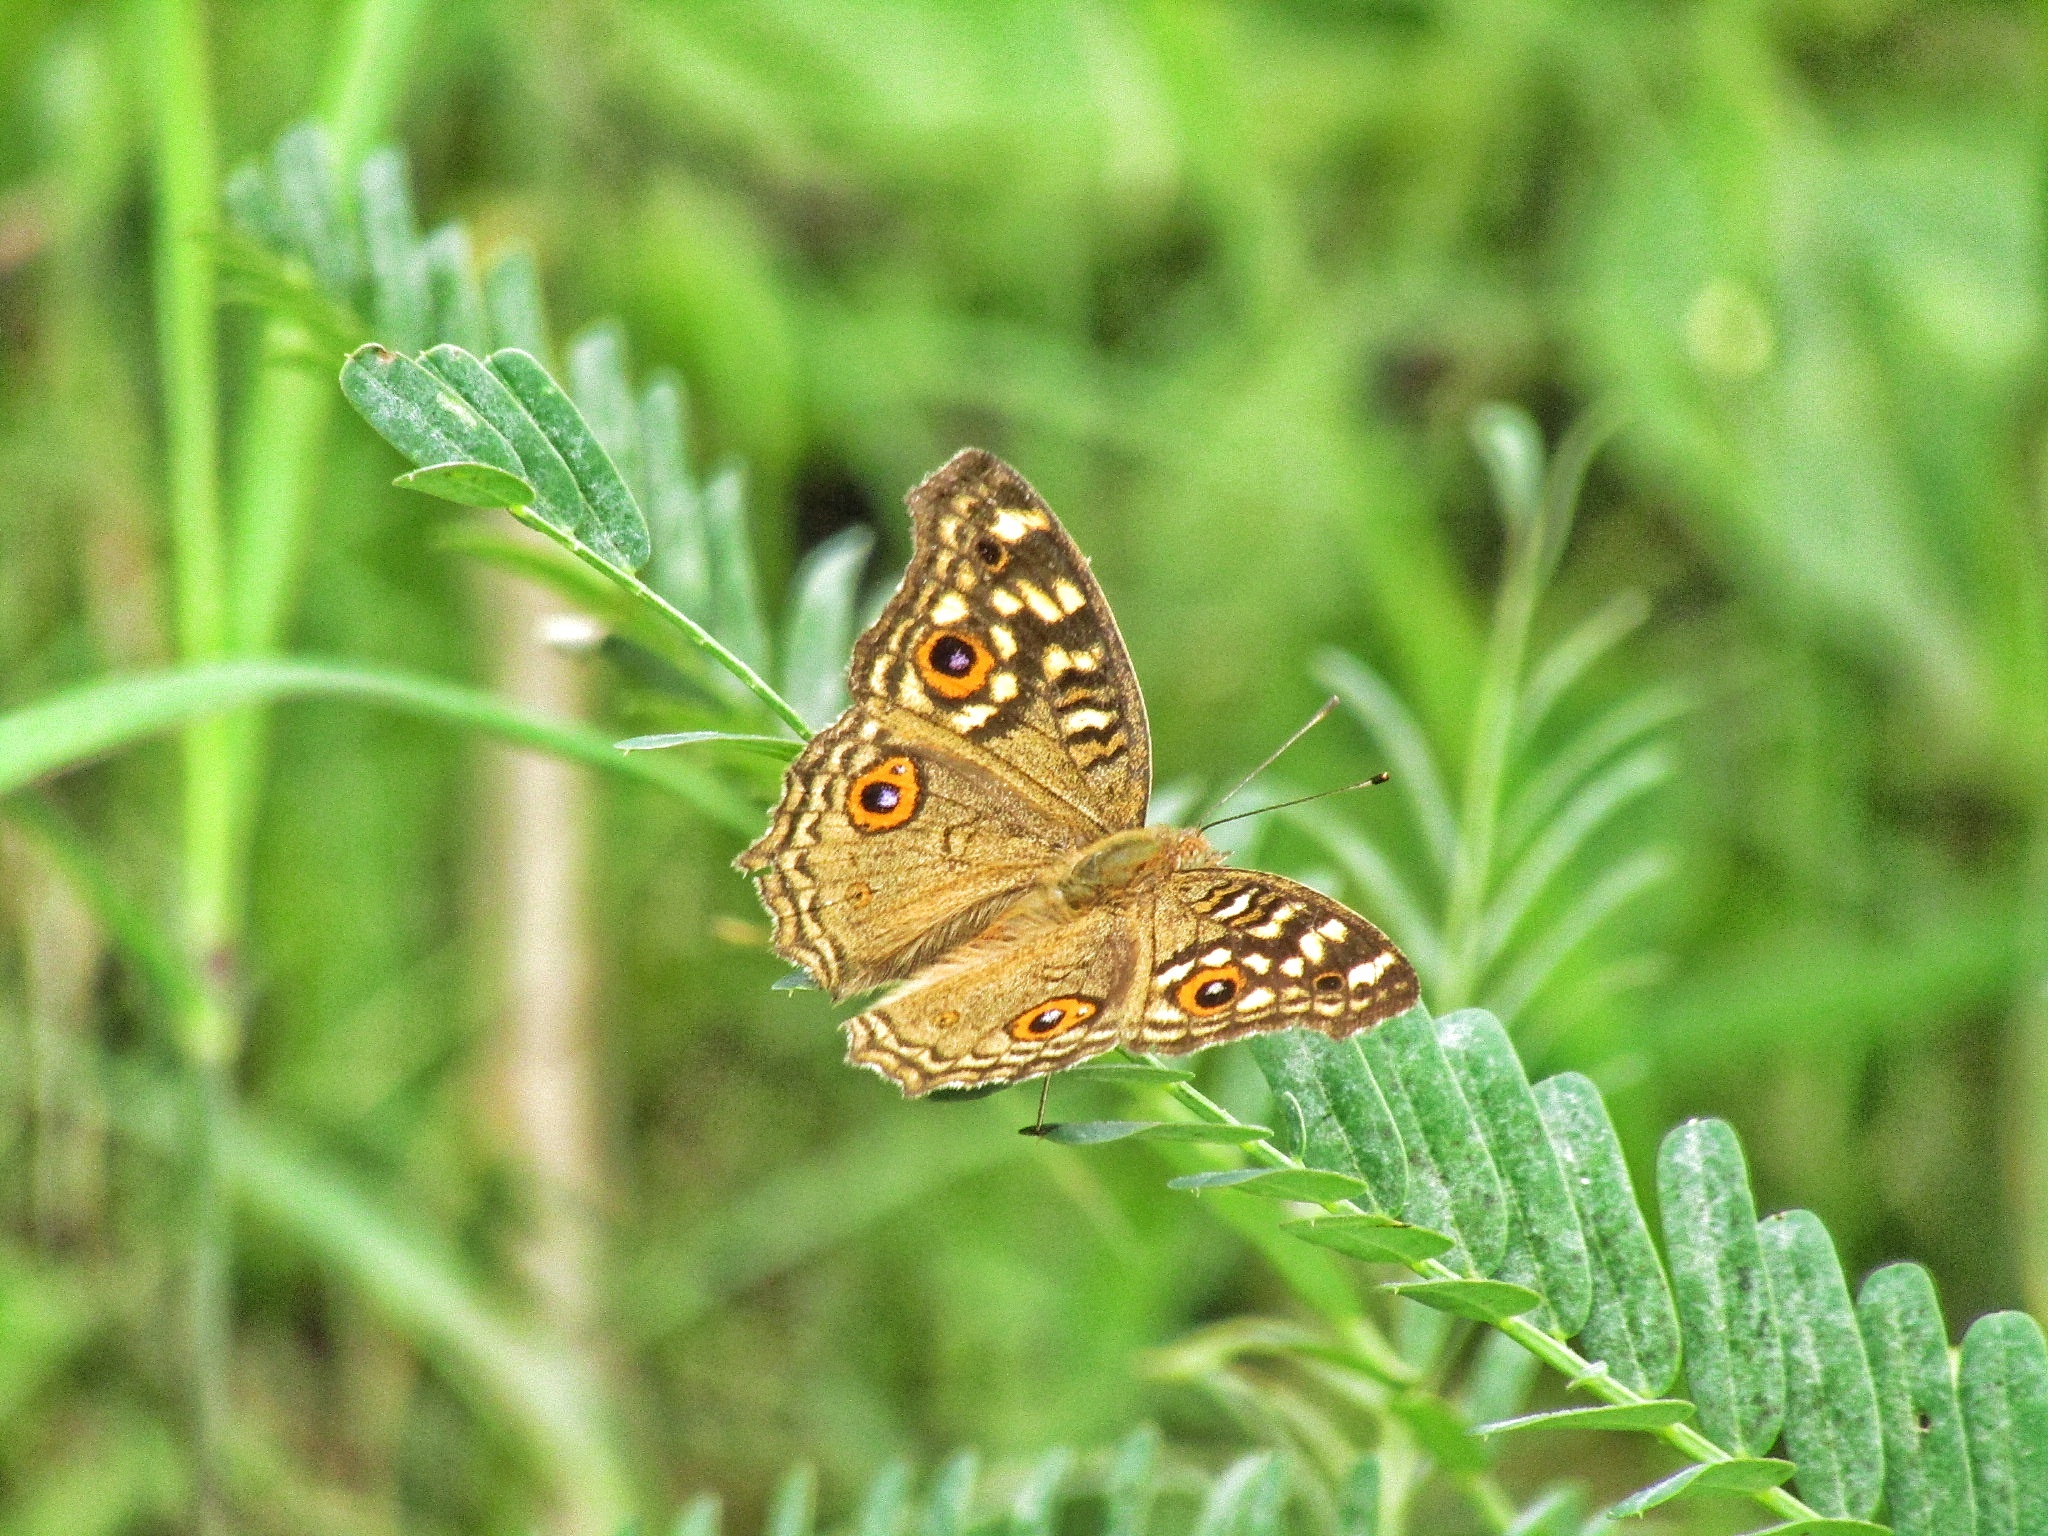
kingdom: Animalia
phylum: Arthropoda
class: Insecta
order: Lepidoptera
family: Nymphalidae
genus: Junonia
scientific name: Junonia lemonias
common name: Lemon pansy
